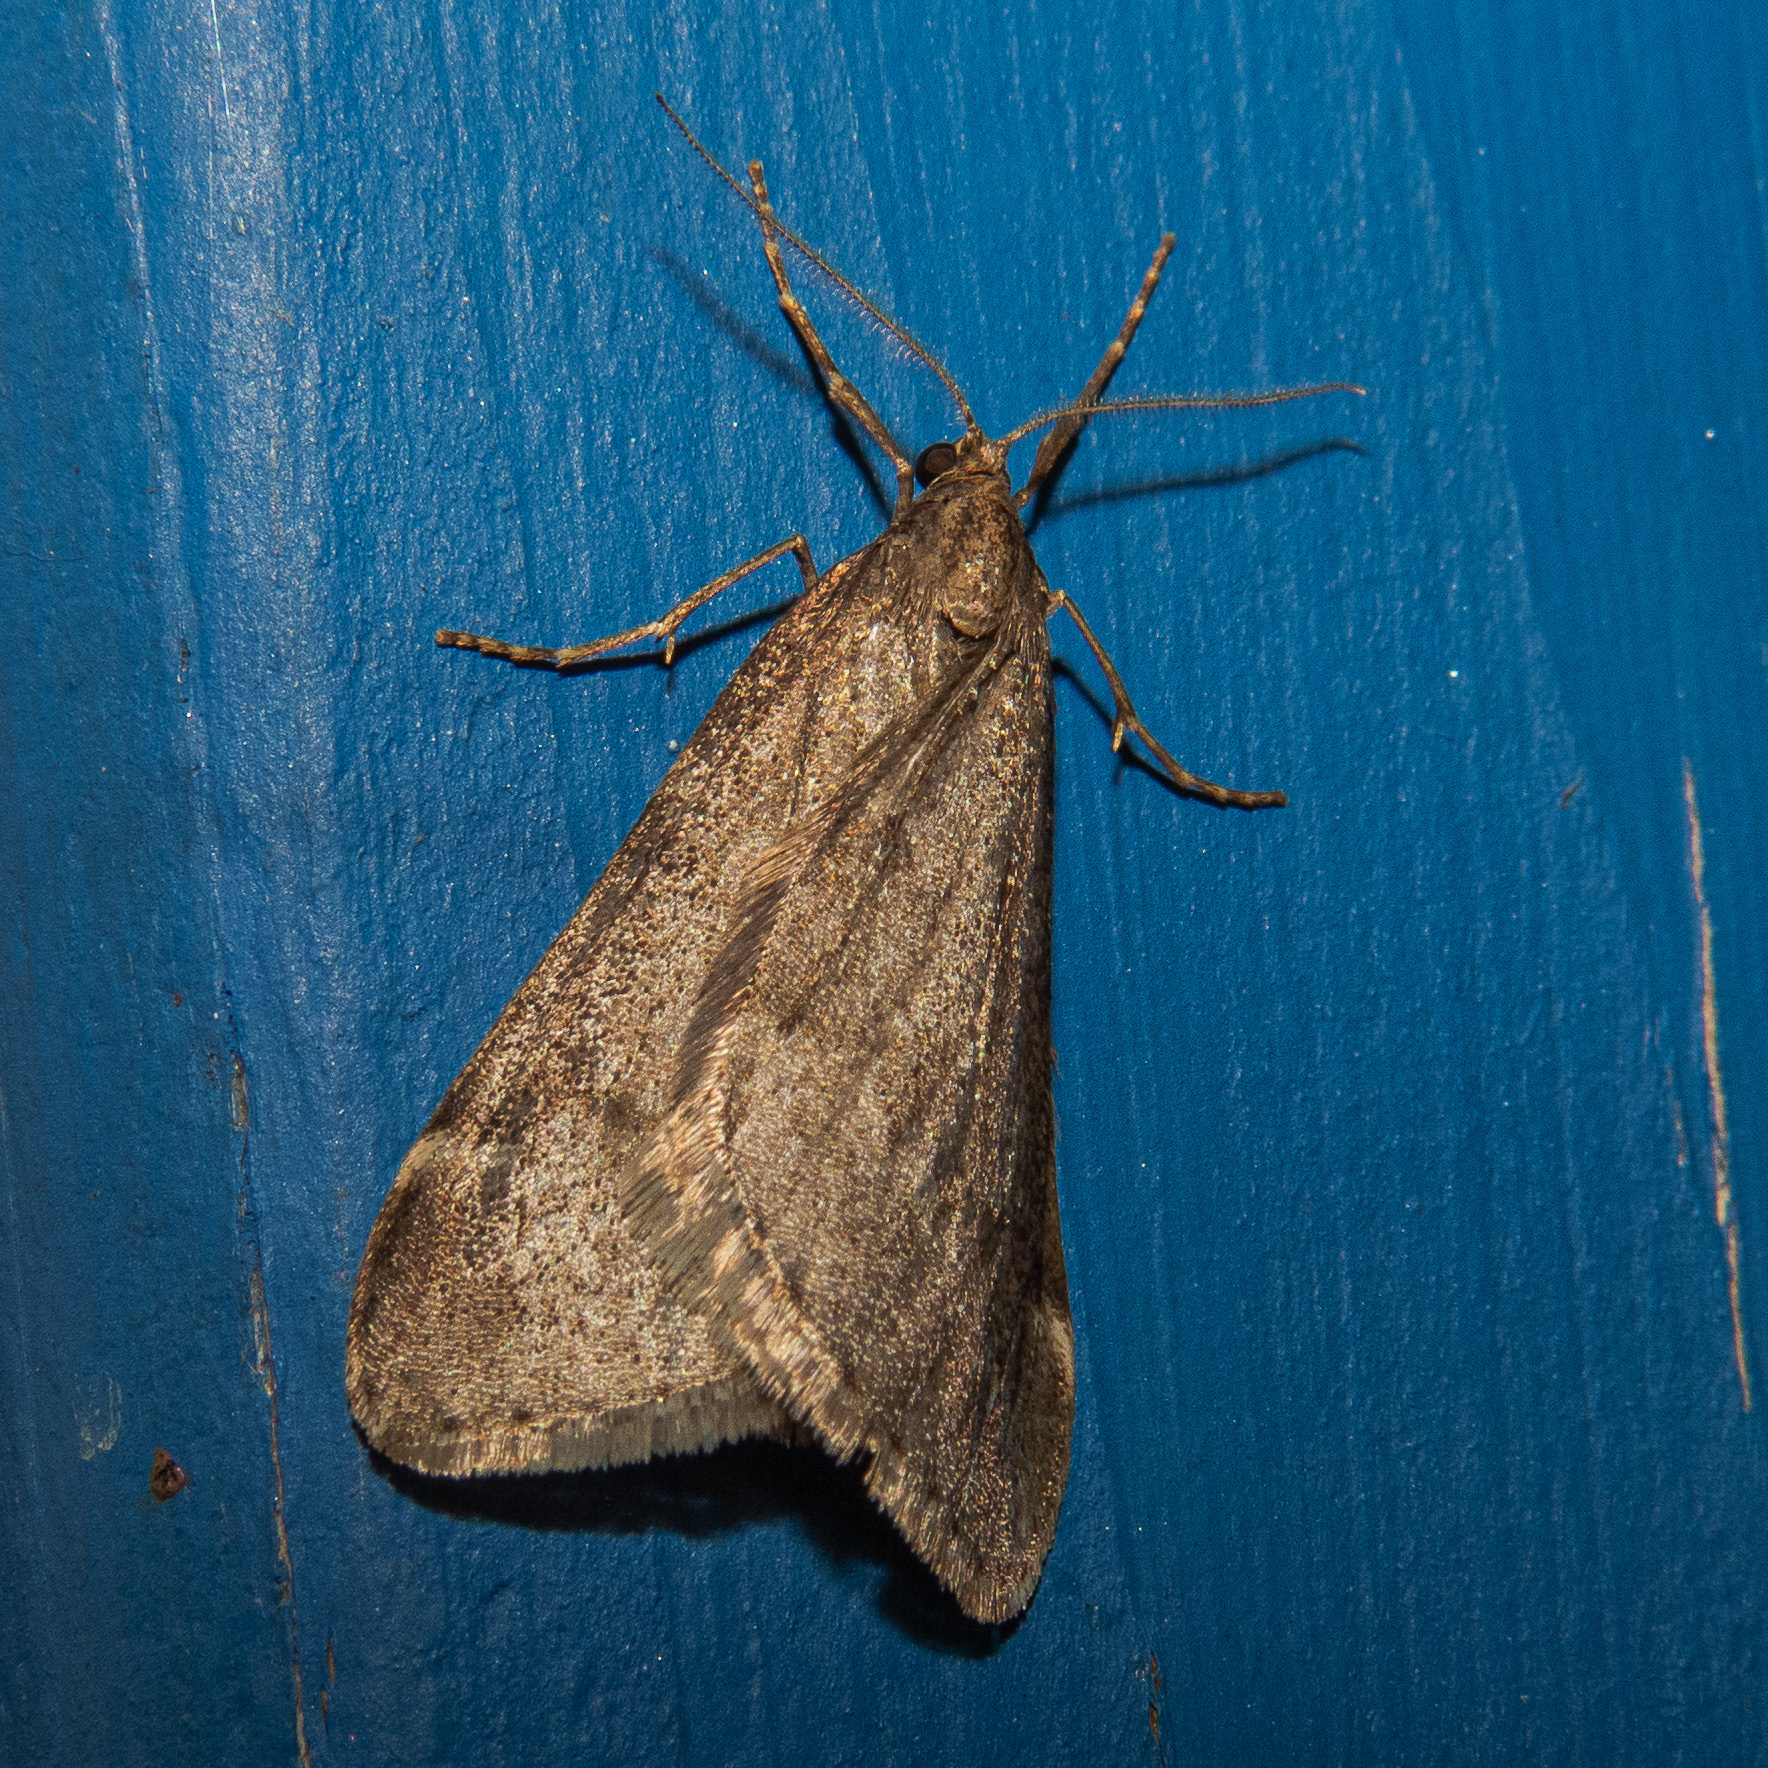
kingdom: Animalia
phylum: Arthropoda
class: Insecta
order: Lepidoptera
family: Geometridae
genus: Alsophila
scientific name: Alsophila pometaria
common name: Fall cankerworm
